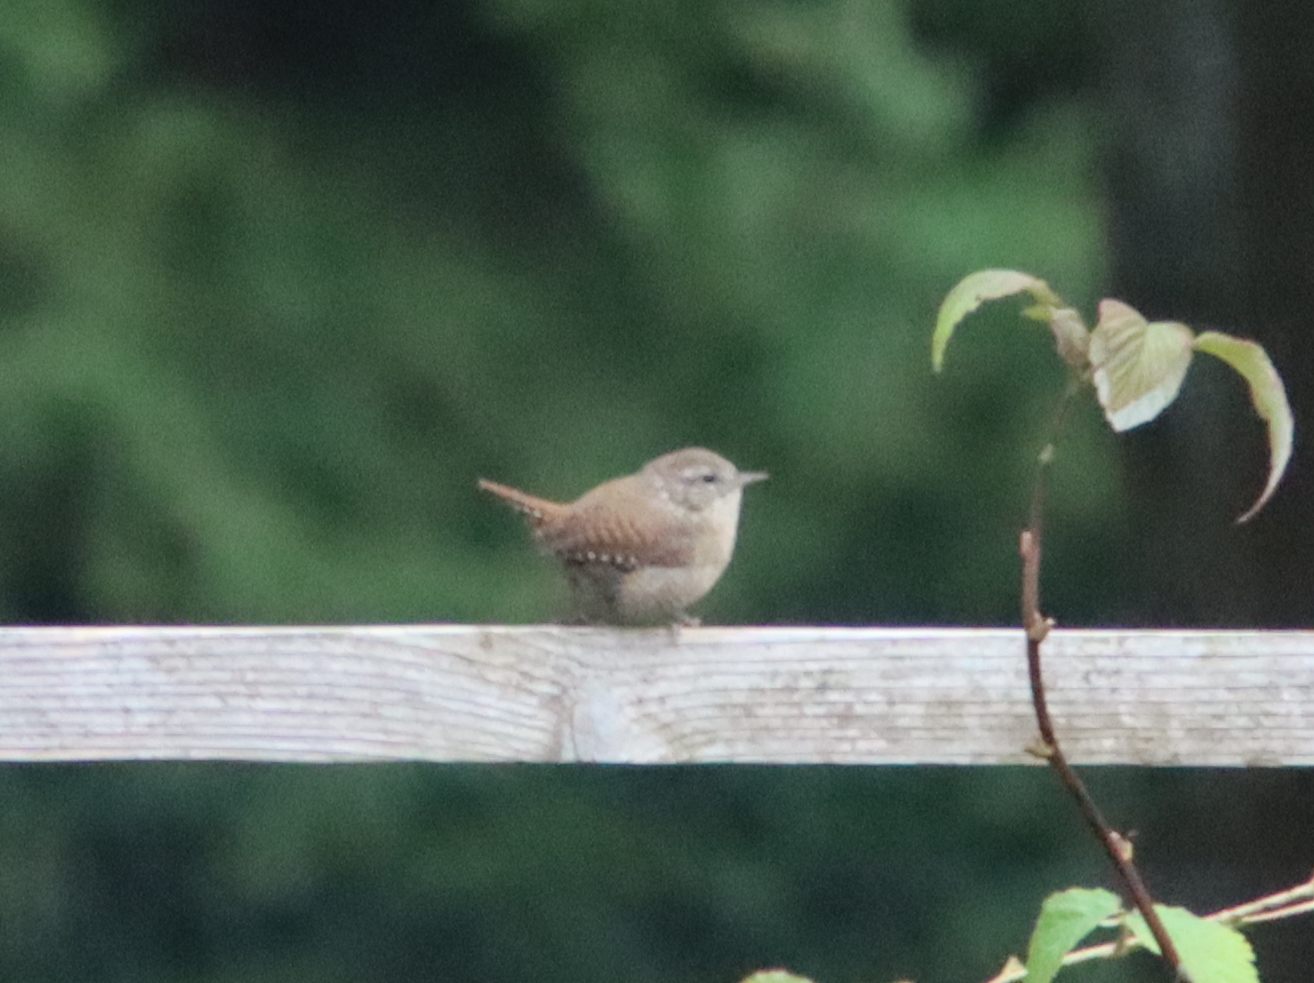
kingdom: Animalia
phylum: Chordata
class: Aves
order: Passeriformes
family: Troglodytidae
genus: Troglodytes
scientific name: Troglodytes troglodytes
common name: Eurasian wren
